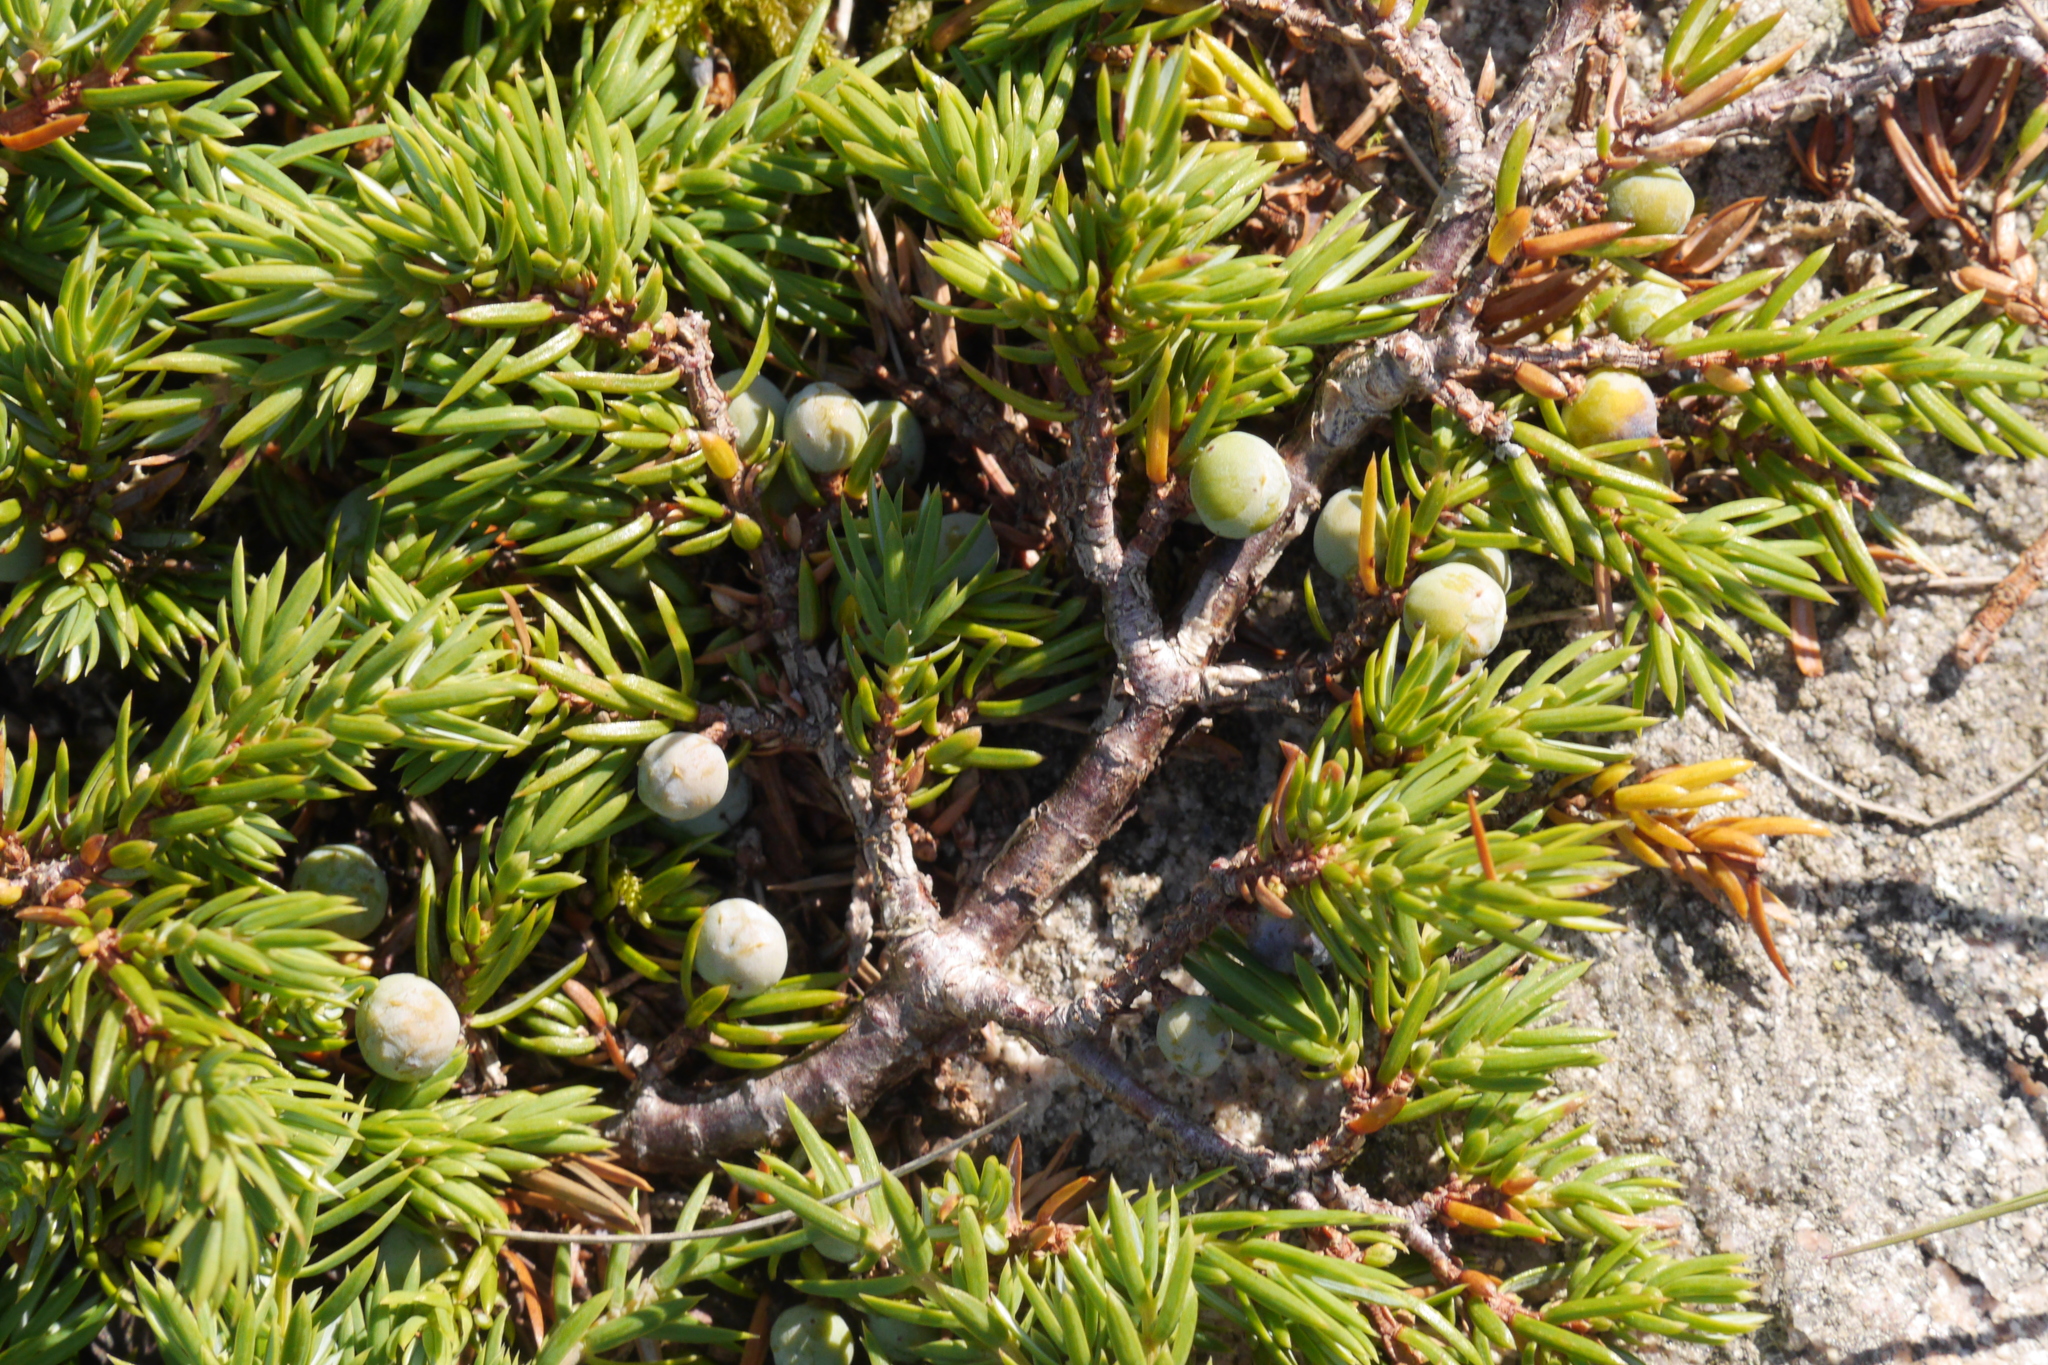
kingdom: Plantae
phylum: Tracheophyta
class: Pinopsida
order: Pinales
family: Cupressaceae
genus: Juniperus
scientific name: Juniperus communis
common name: Common juniper
